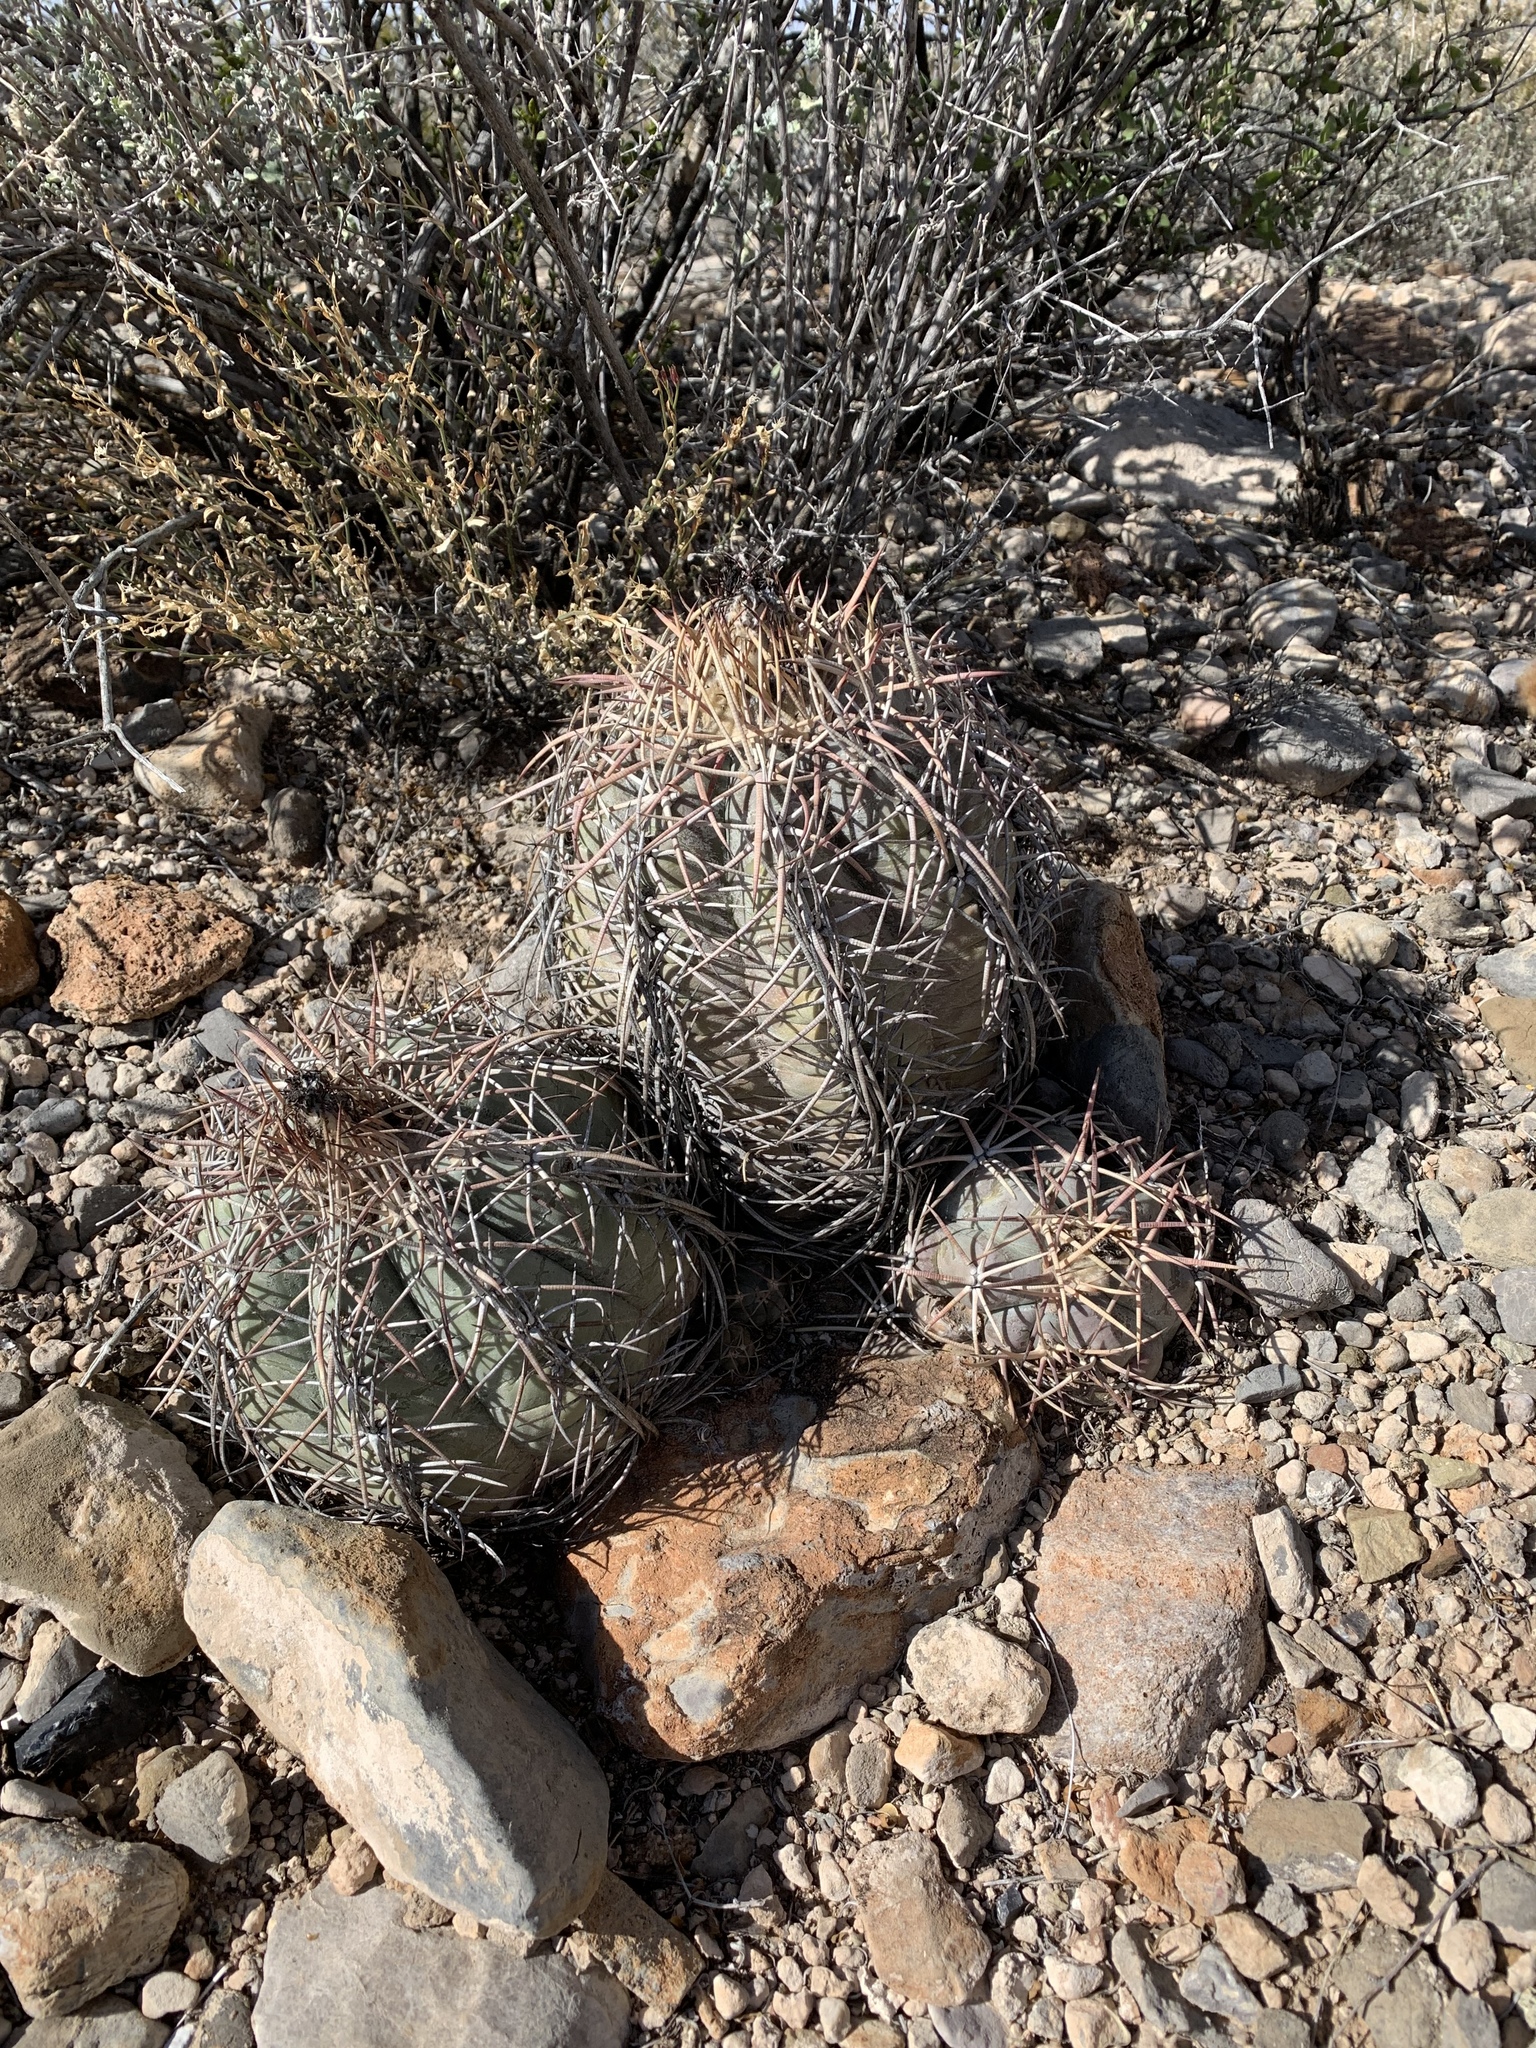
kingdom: Plantae
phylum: Tracheophyta
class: Magnoliopsida
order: Caryophyllales
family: Cactaceae
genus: Echinocactus
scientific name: Echinocactus horizonthalonius
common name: Devilshead
